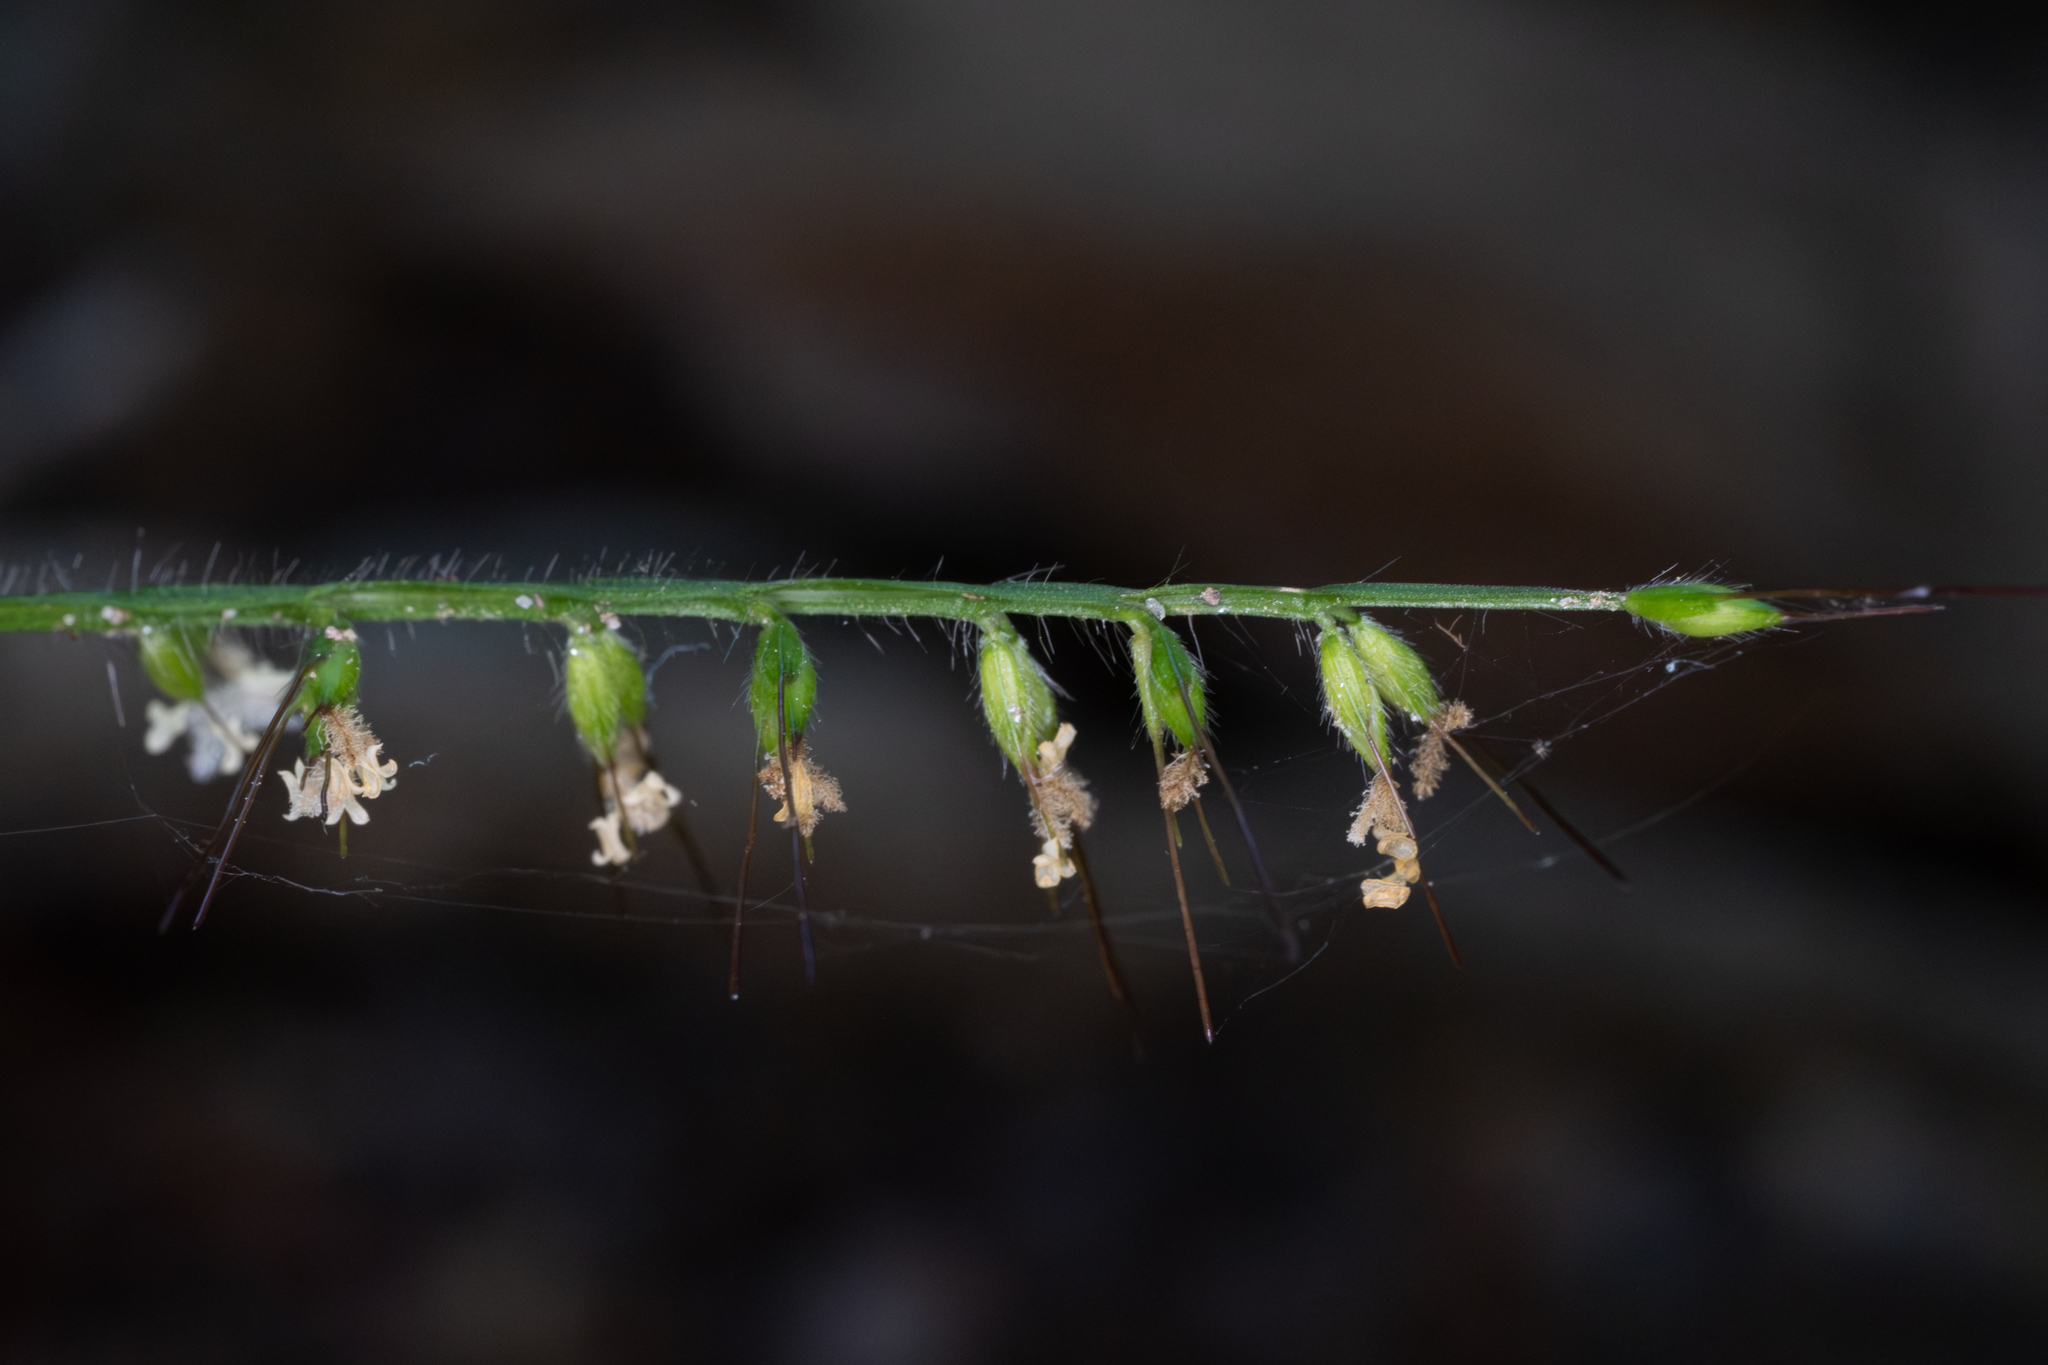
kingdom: Plantae
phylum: Tracheophyta
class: Liliopsida
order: Poales
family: Poaceae
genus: Oplismenus
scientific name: Oplismenus undulatifolius
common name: Wavyleaf basketgrass
